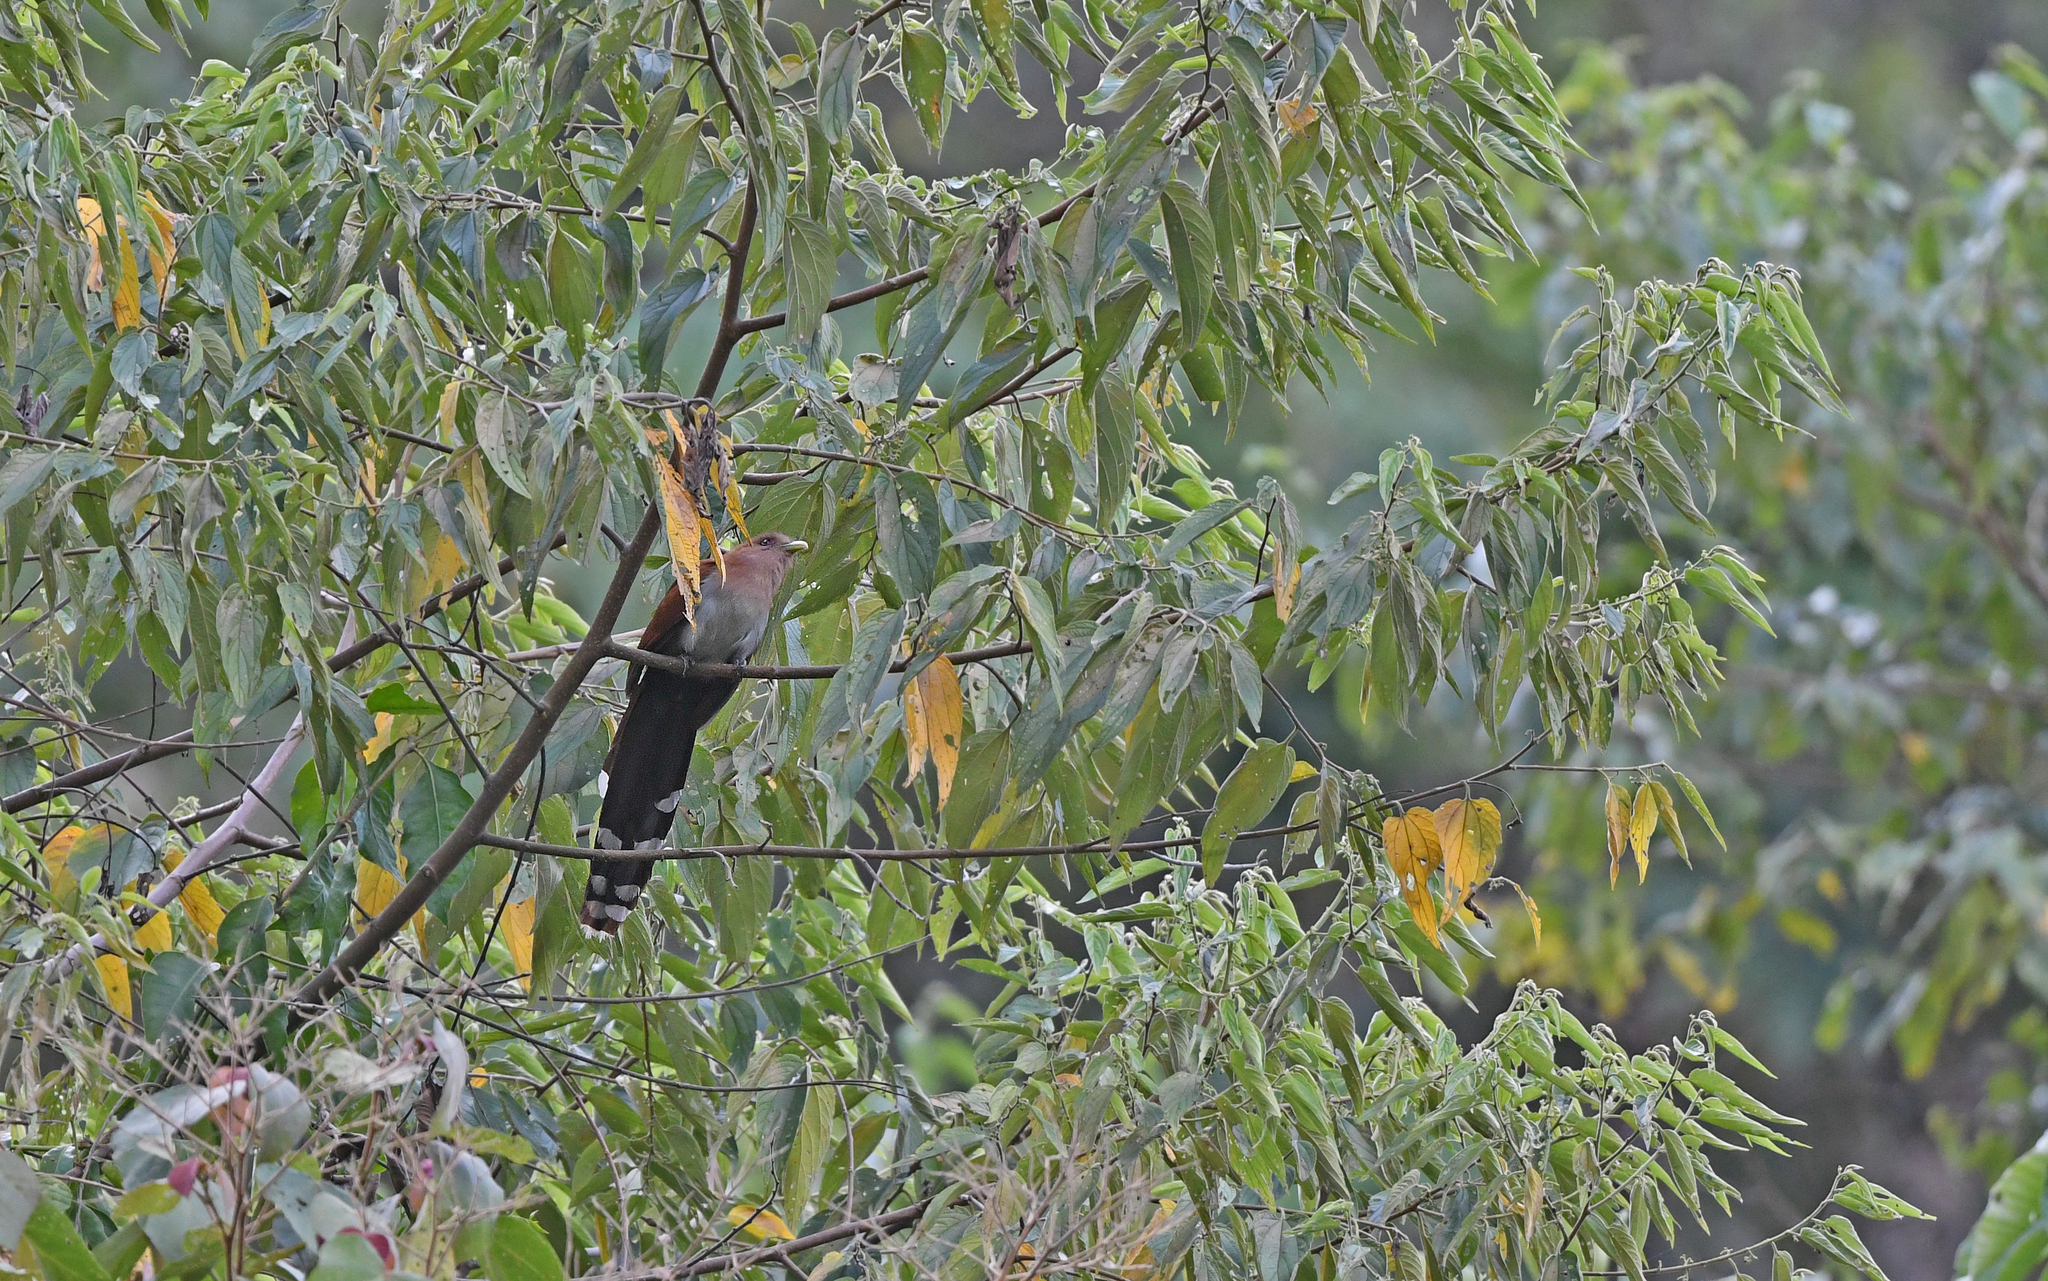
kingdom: Animalia
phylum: Chordata
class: Aves
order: Cuculiformes
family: Cuculidae
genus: Piaya
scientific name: Piaya cayana
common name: Squirrel cuckoo
